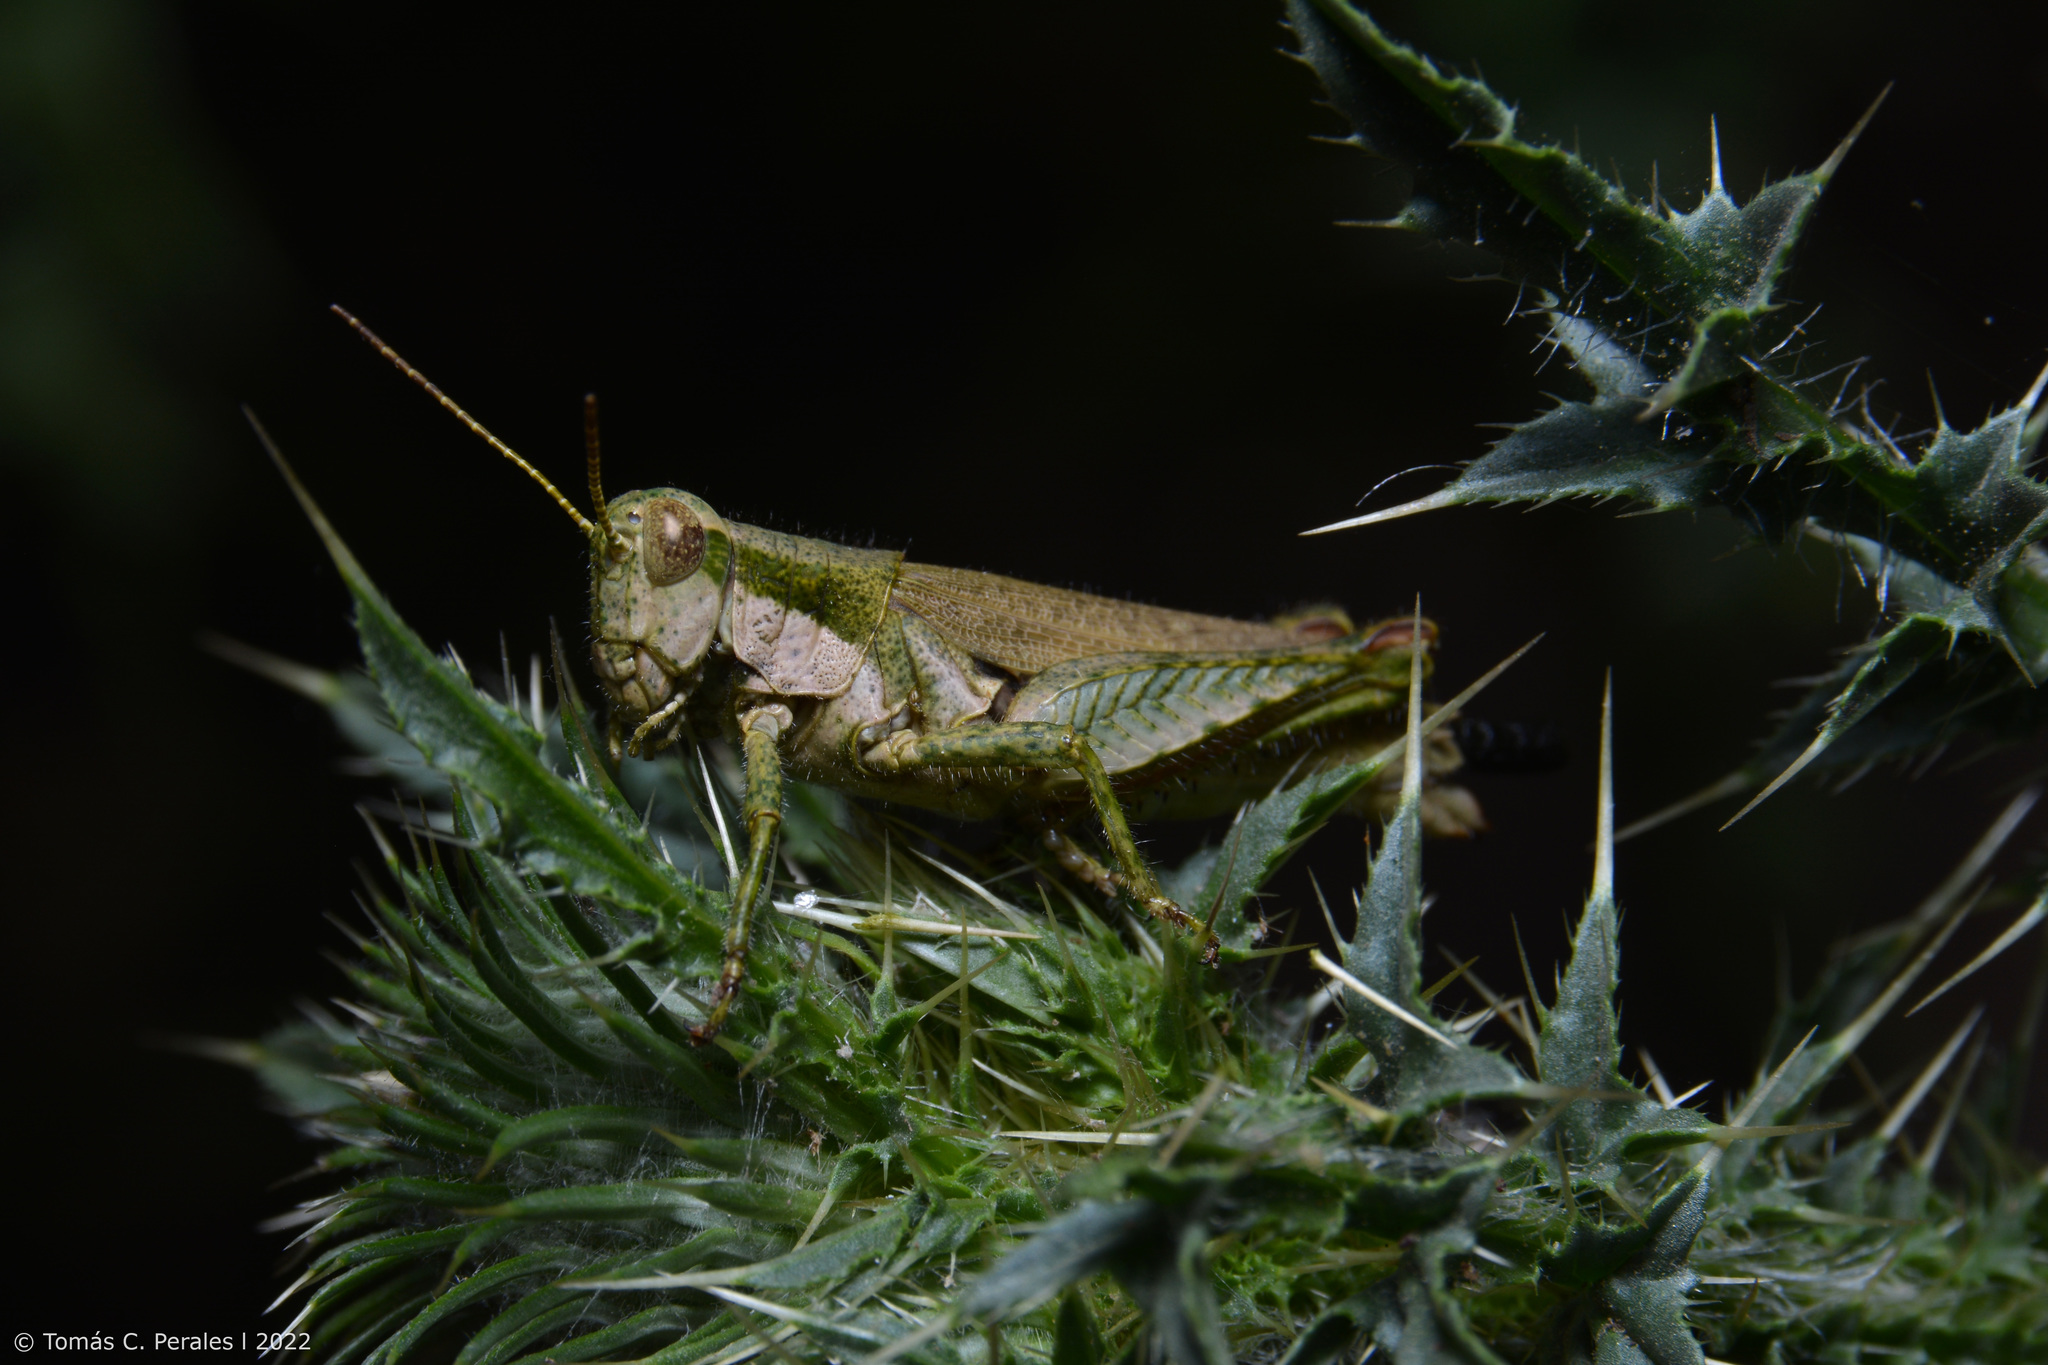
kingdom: Animalia
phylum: Arthropoda
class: Insecta
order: Orthoptera
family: Acrididae
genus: Ronderosia
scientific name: Ronderosia bergii
